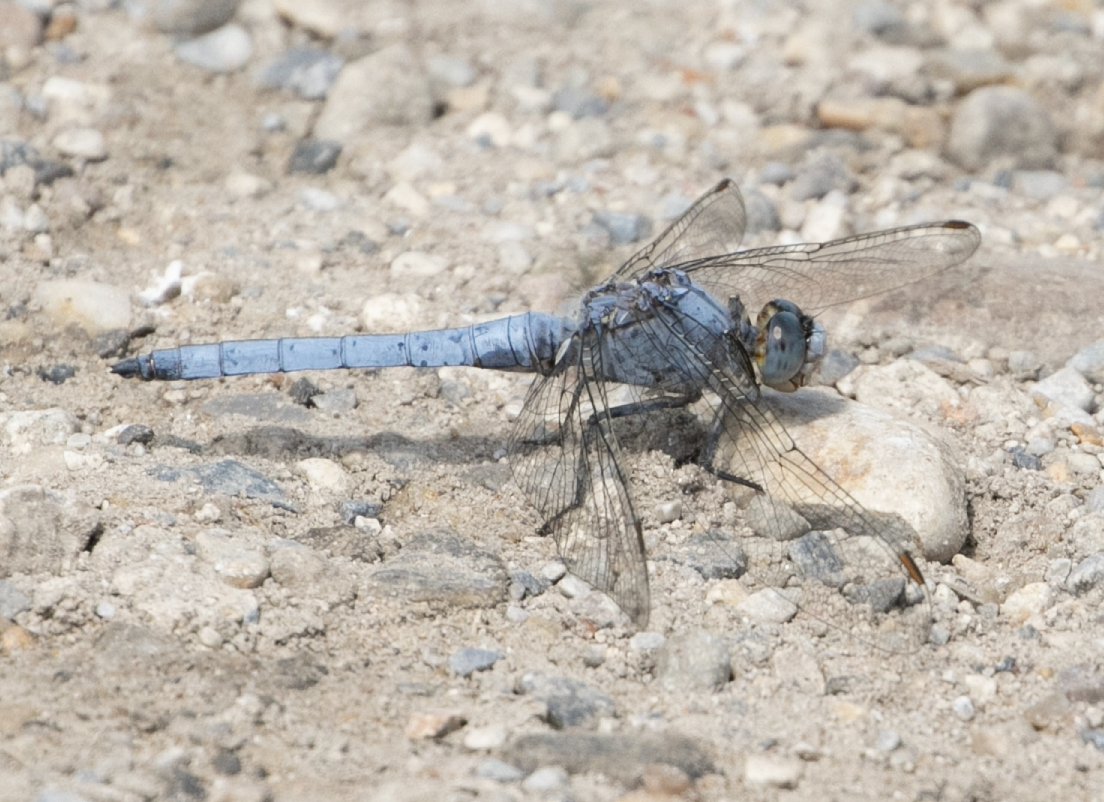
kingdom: Animalia
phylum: Arthropoda
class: Insecta
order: Odonata
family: Libellulidae
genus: Orthetrum
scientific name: Orthetrum brunneum
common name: Southern skimmer
